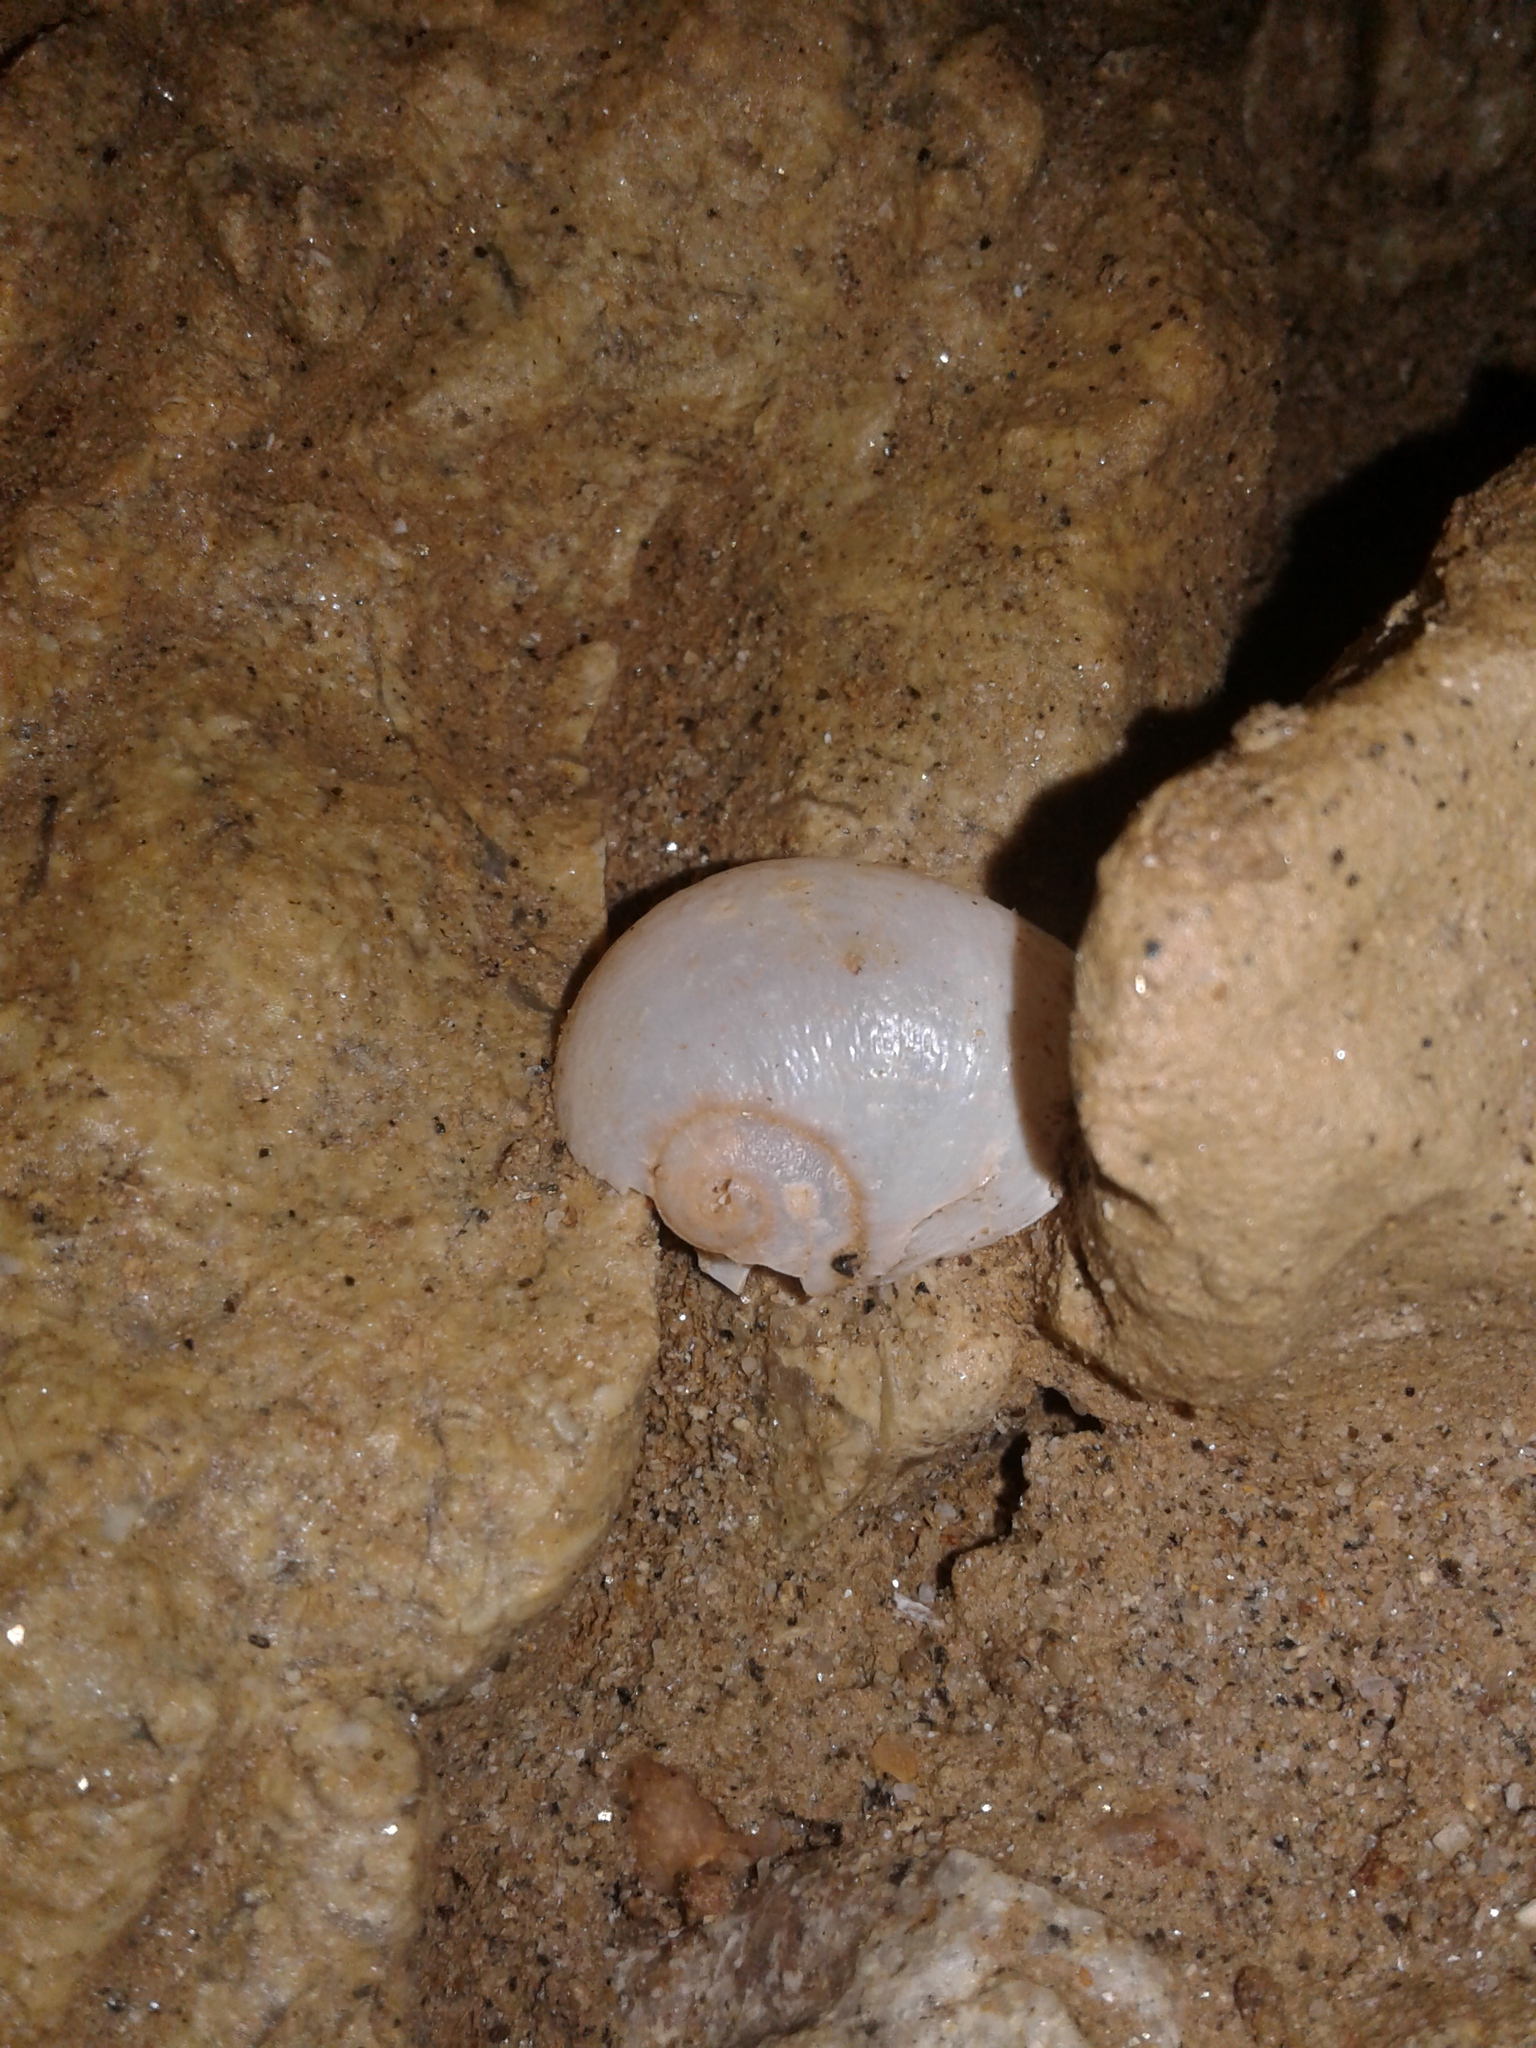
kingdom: Animalia
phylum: Mollusca
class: Gastropoda
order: Stylommatophora
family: Rhytididae
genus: Rhytida
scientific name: Rhytida
